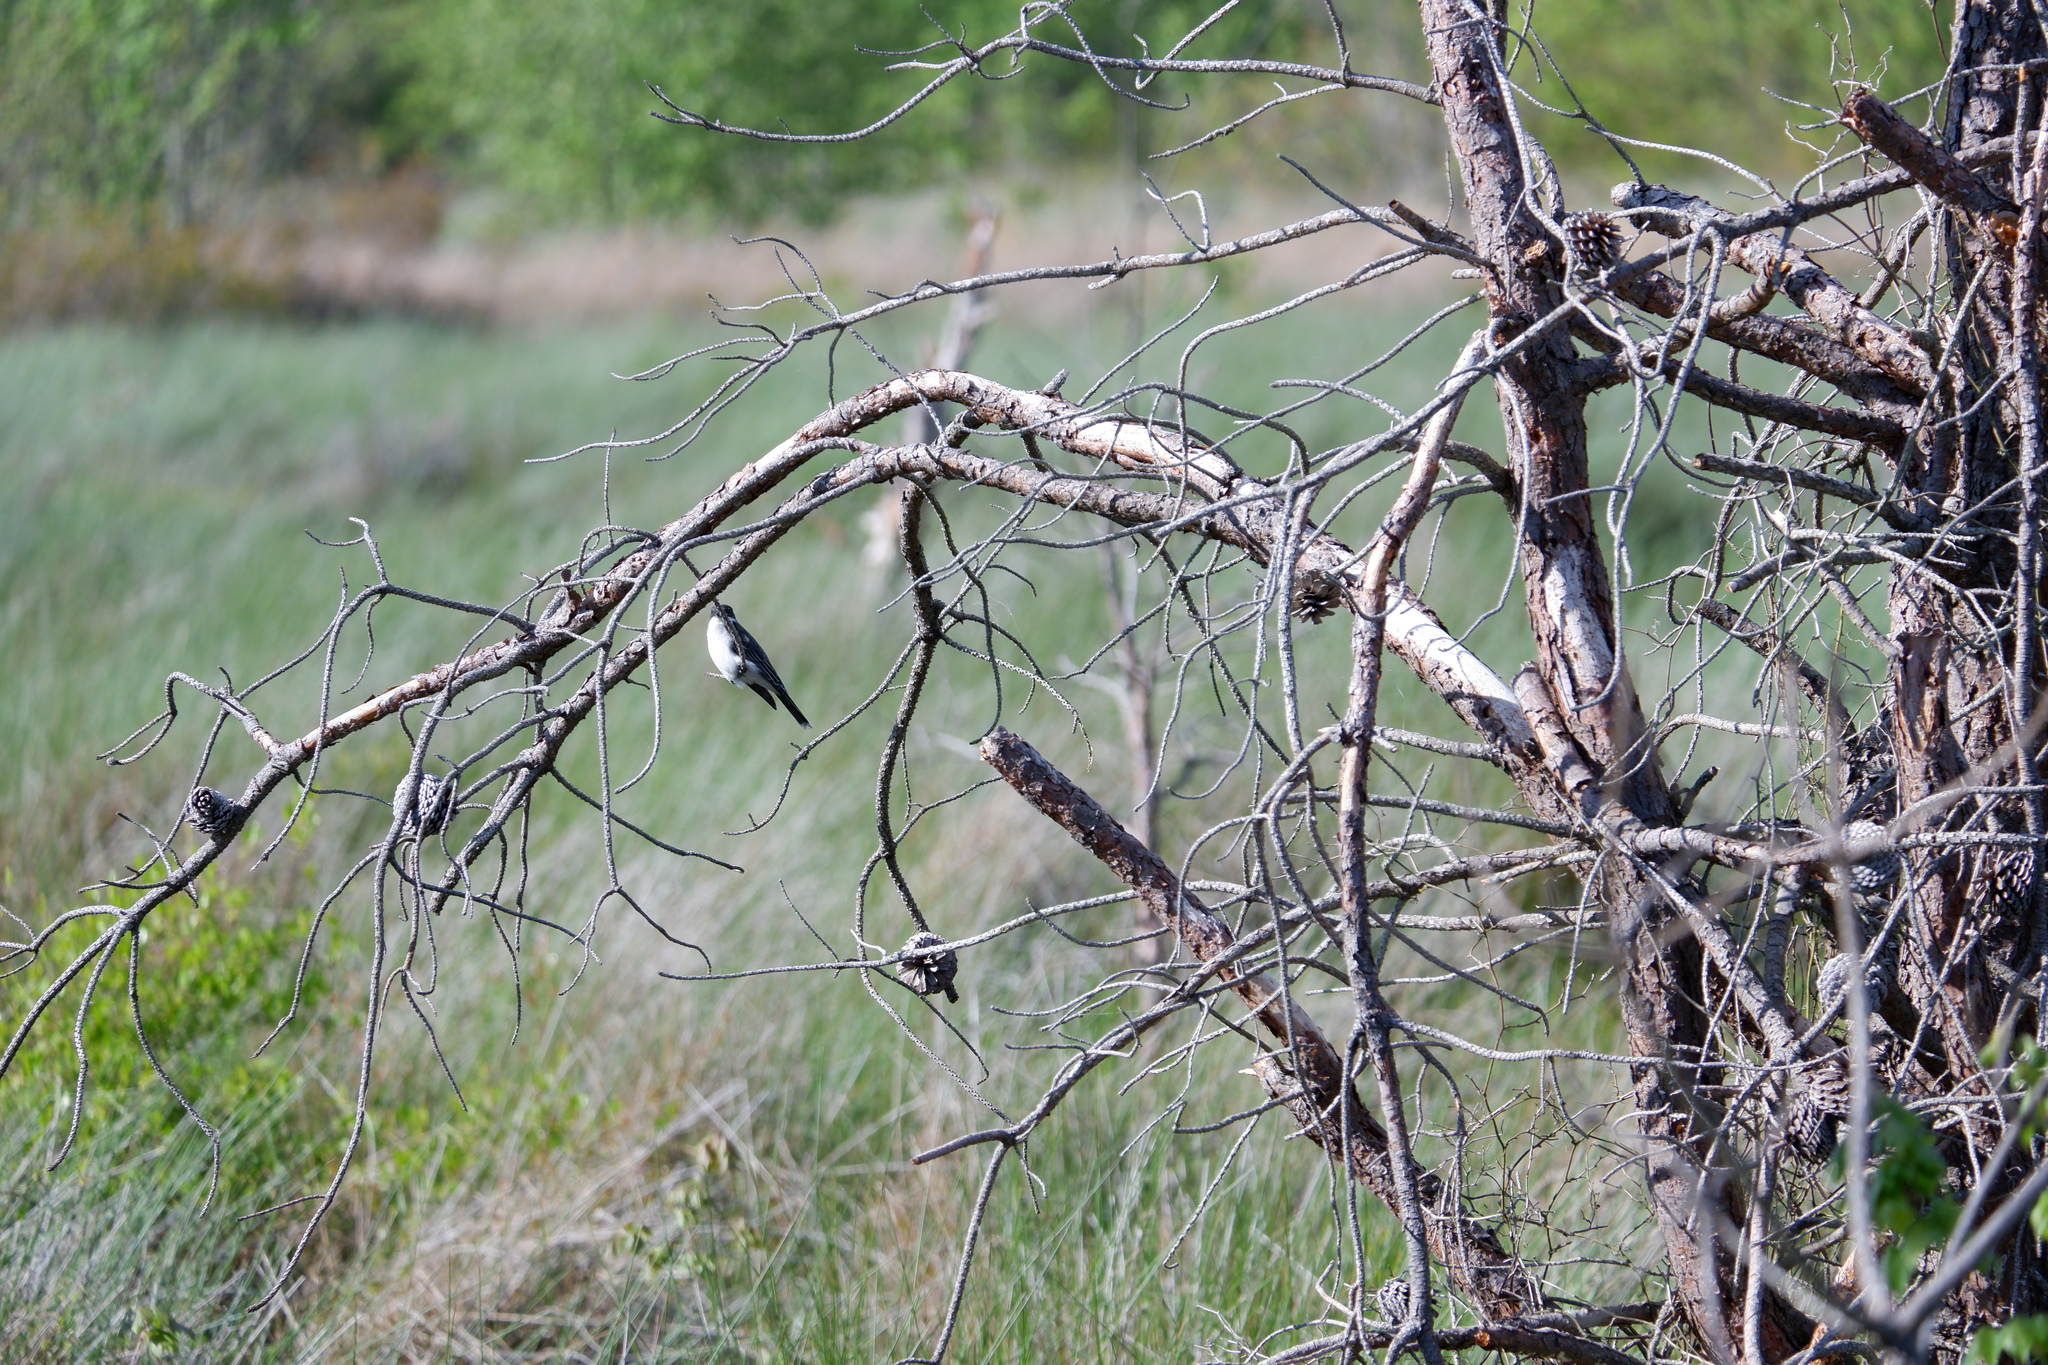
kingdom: Animalia
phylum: Chordata
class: Aves
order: Passeriformes
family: Tyrannidae
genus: Tyrannus
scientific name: Tyrannus tyrannus
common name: Eastern kingbird
